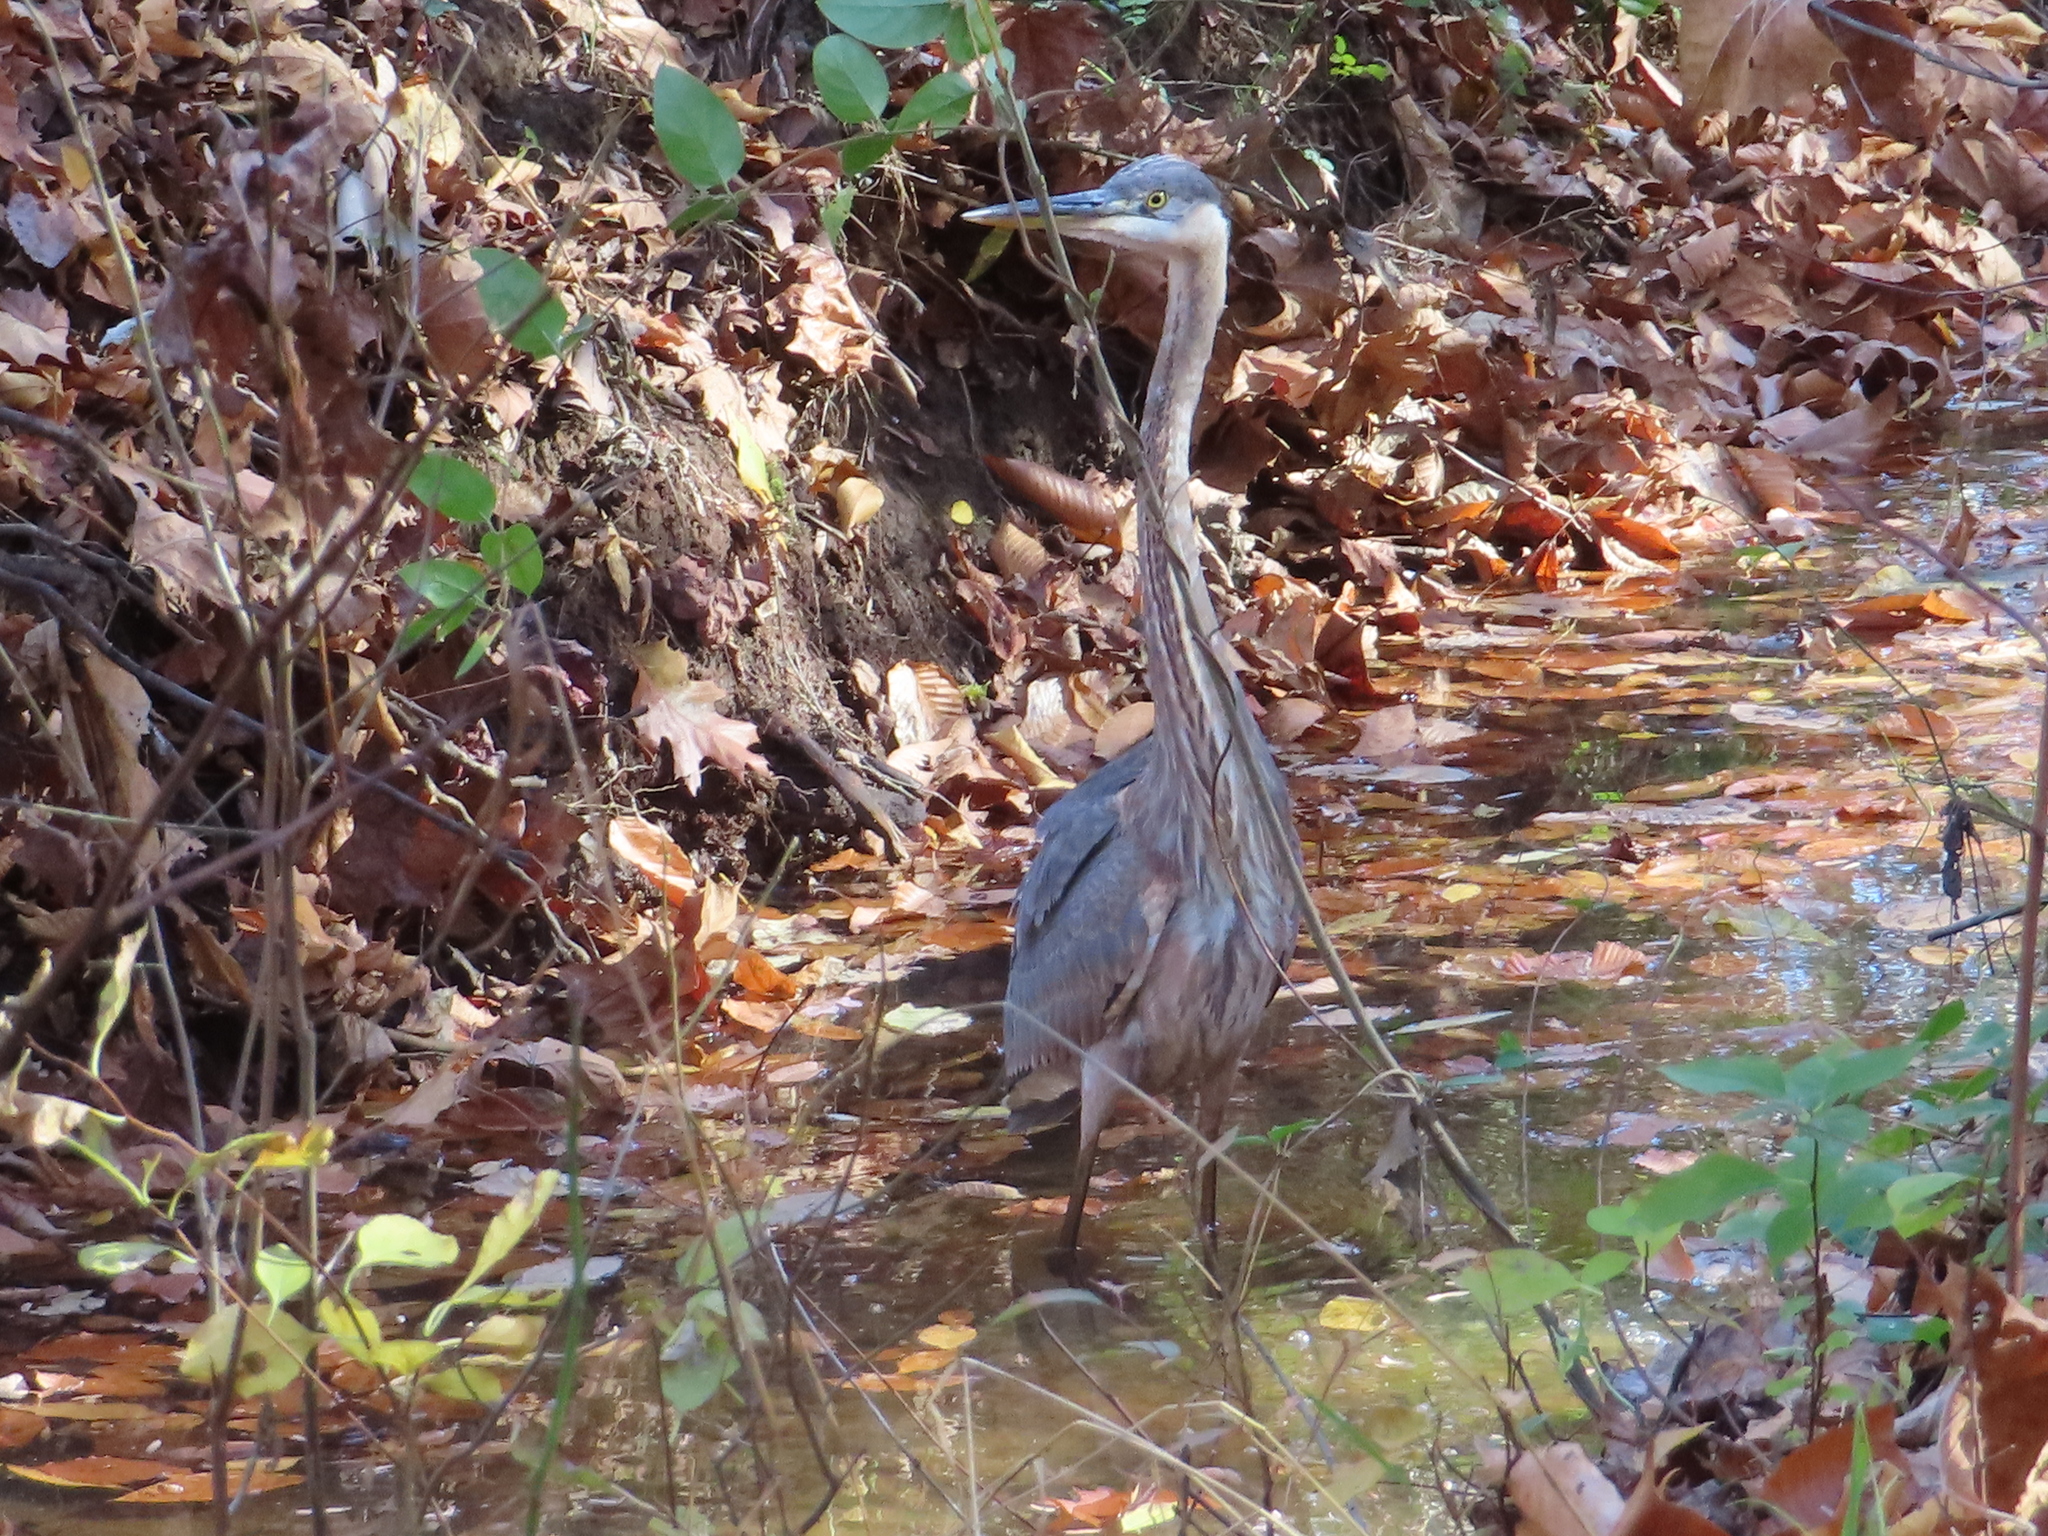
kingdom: Animalia
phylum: Chordata
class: Aves
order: Pelecaniformes
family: Ardeidae
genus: Ardea
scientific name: Ardea herodias
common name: Great blue heron
